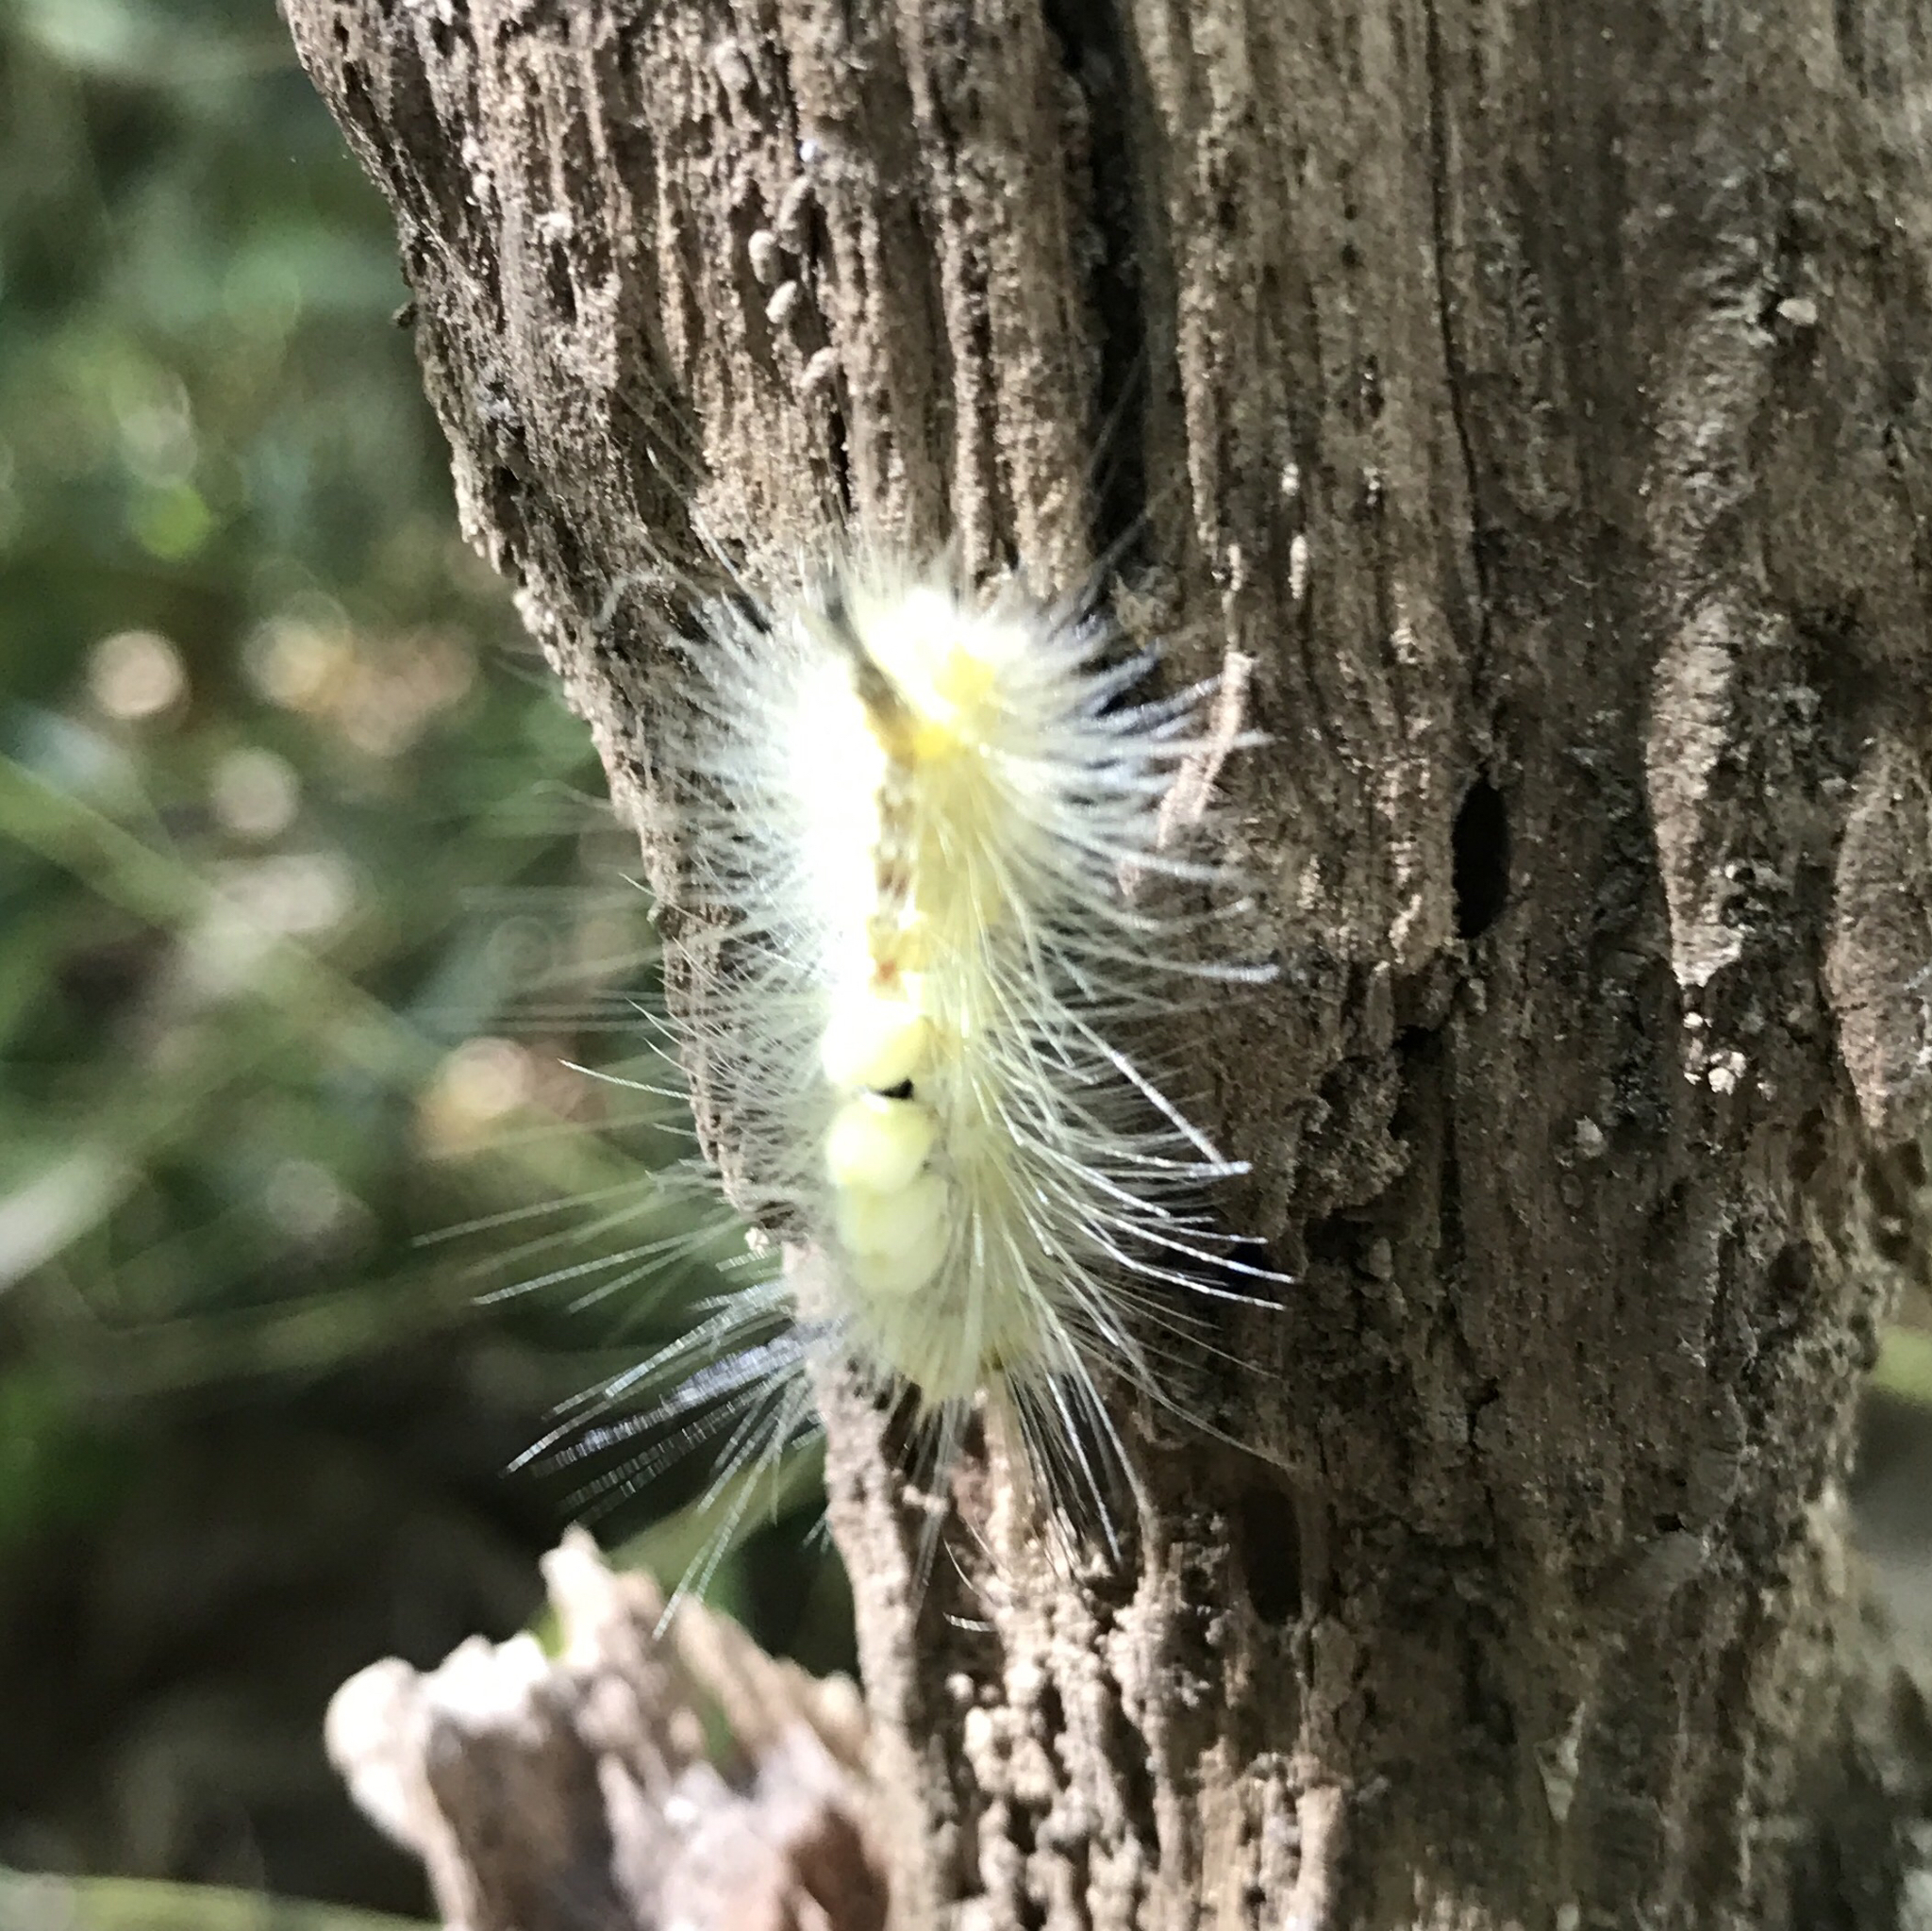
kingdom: Animalia
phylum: Arthropoda
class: Insecta
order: Lepidoptera
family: Erebidae
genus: Orgyia
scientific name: Orgyia definita
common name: Definite tussock moth
